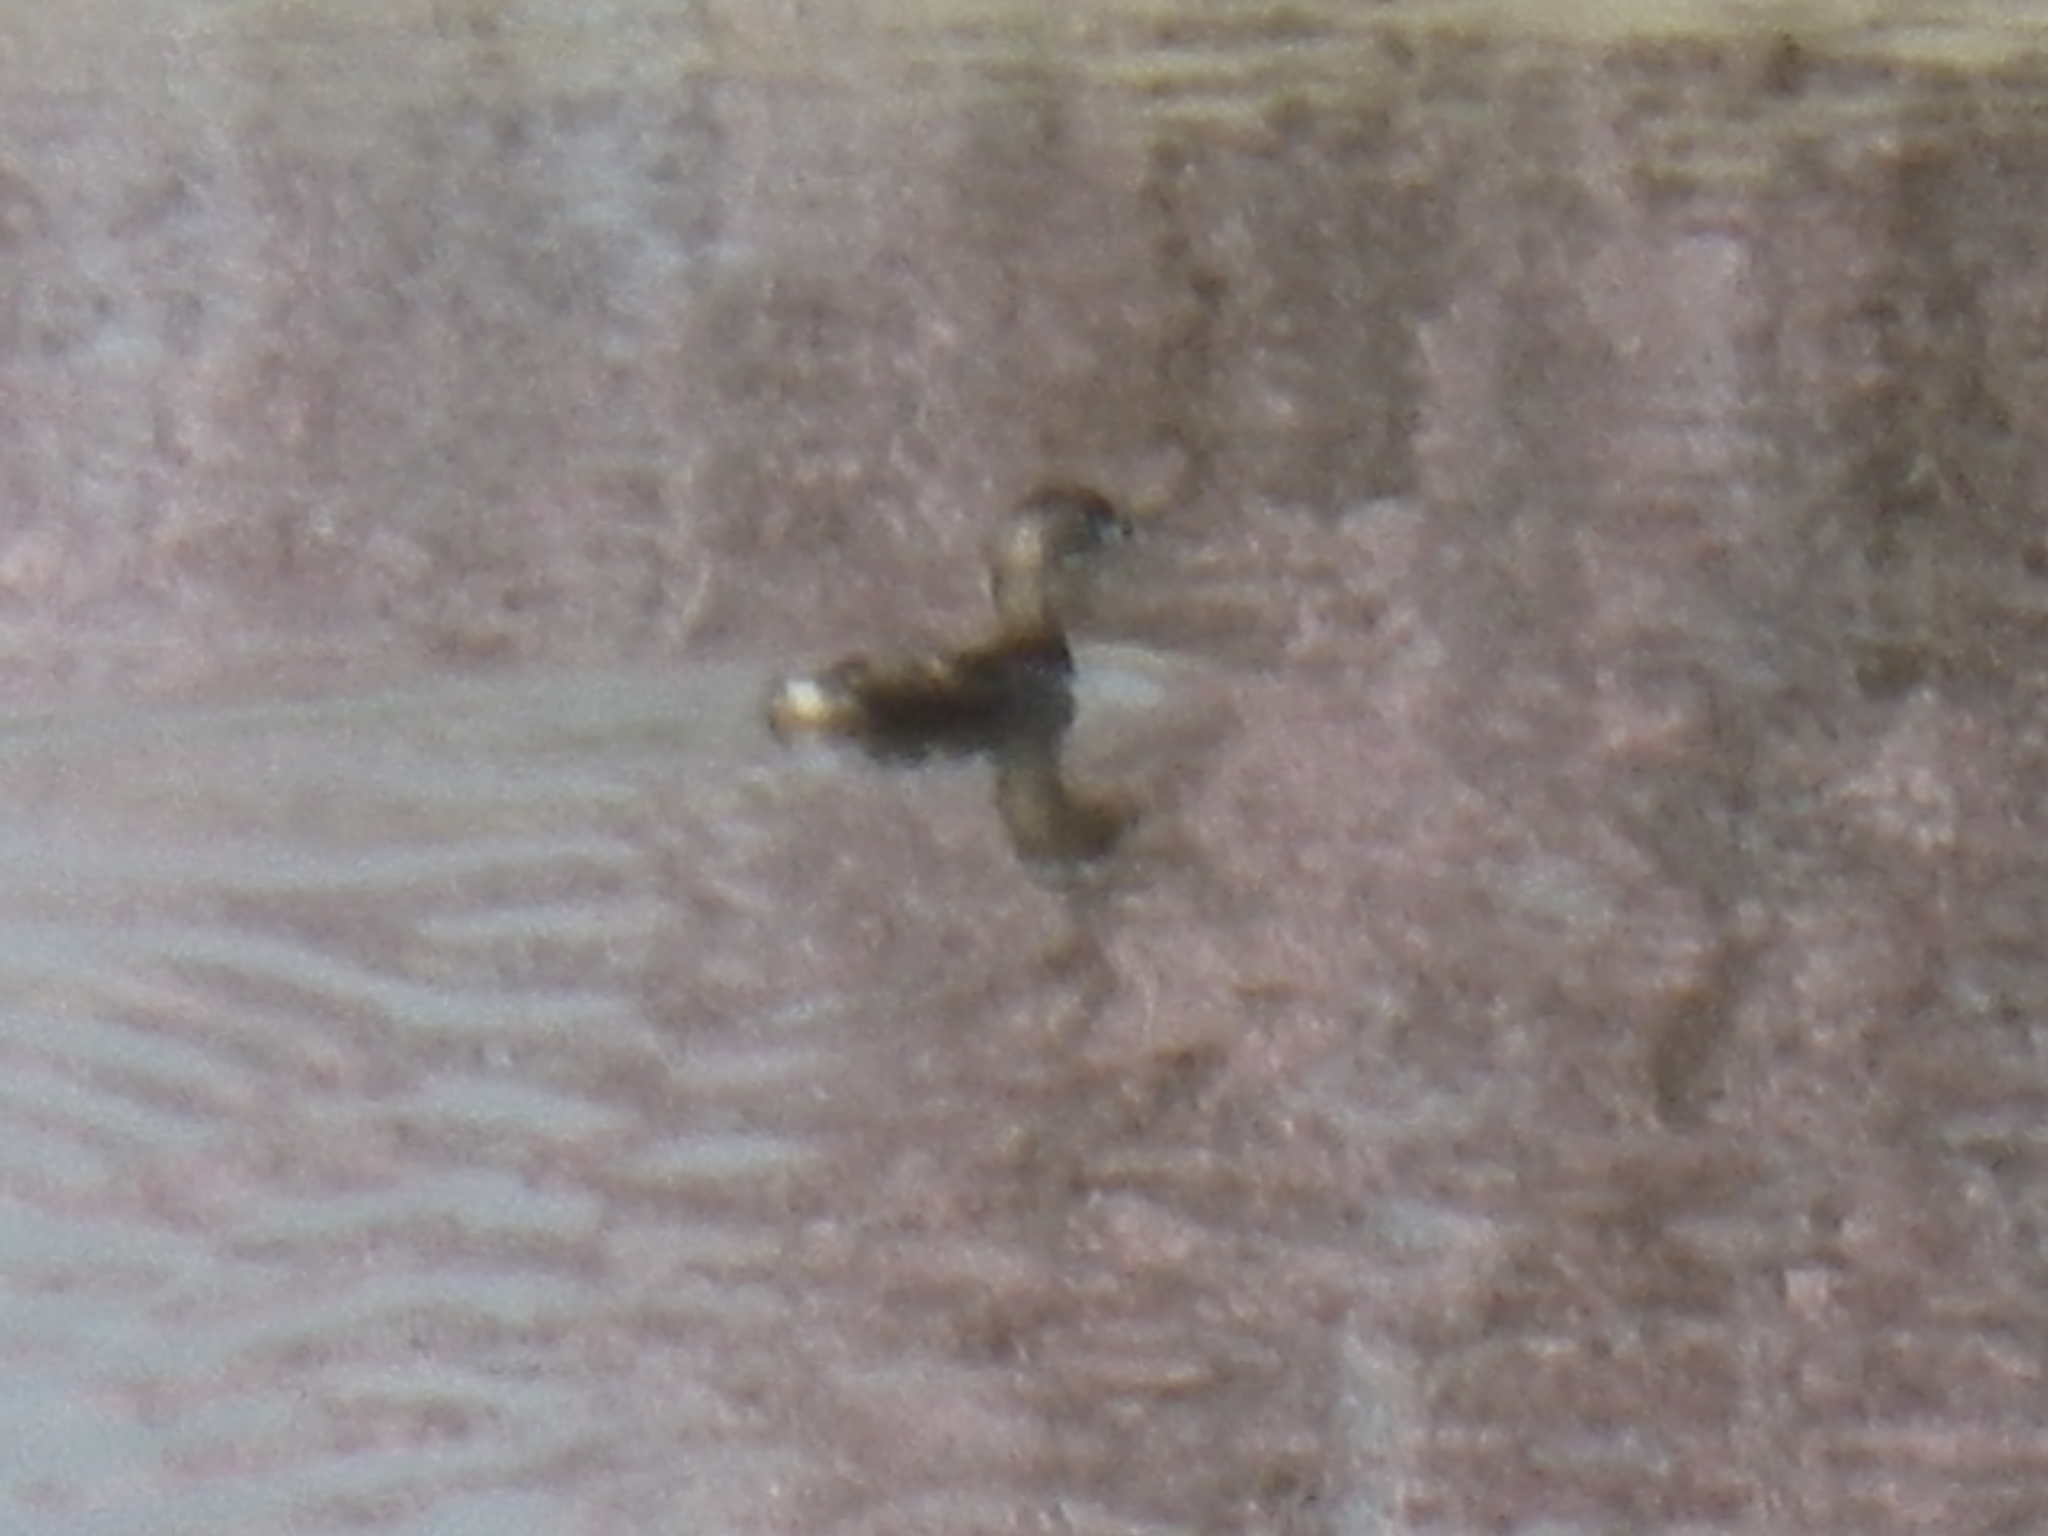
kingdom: Animalia
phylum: Chordata
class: Aves
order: Podicipediformes
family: Podicipedidae
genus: Podilymbus
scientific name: Podilymbus podiceps
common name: Pied-billed grebe
